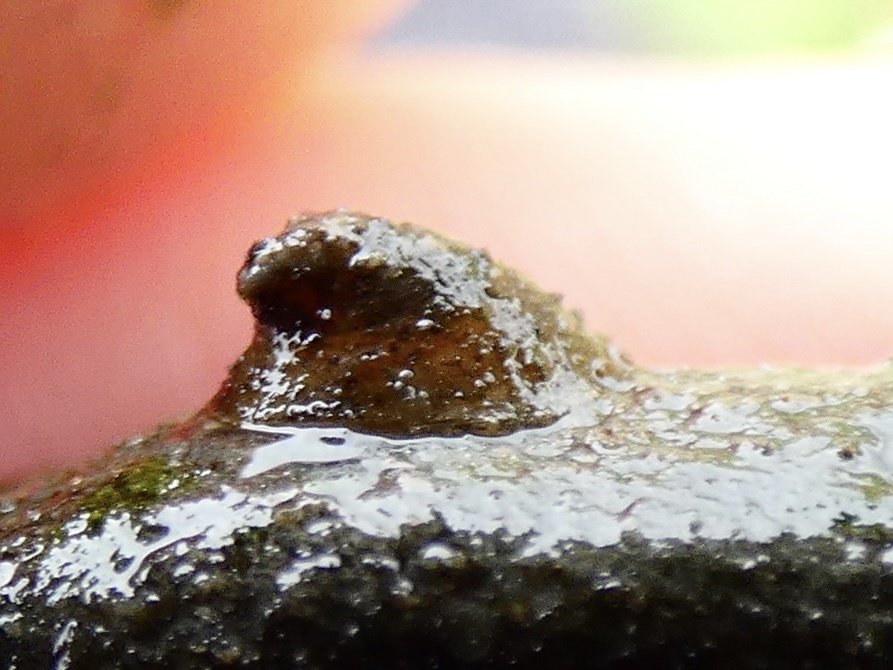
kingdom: Animalia
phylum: Mollusca
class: Gastropoda
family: Planorbidae
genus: Ancylus
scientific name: Ancylus fluviatilis
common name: River limpet
